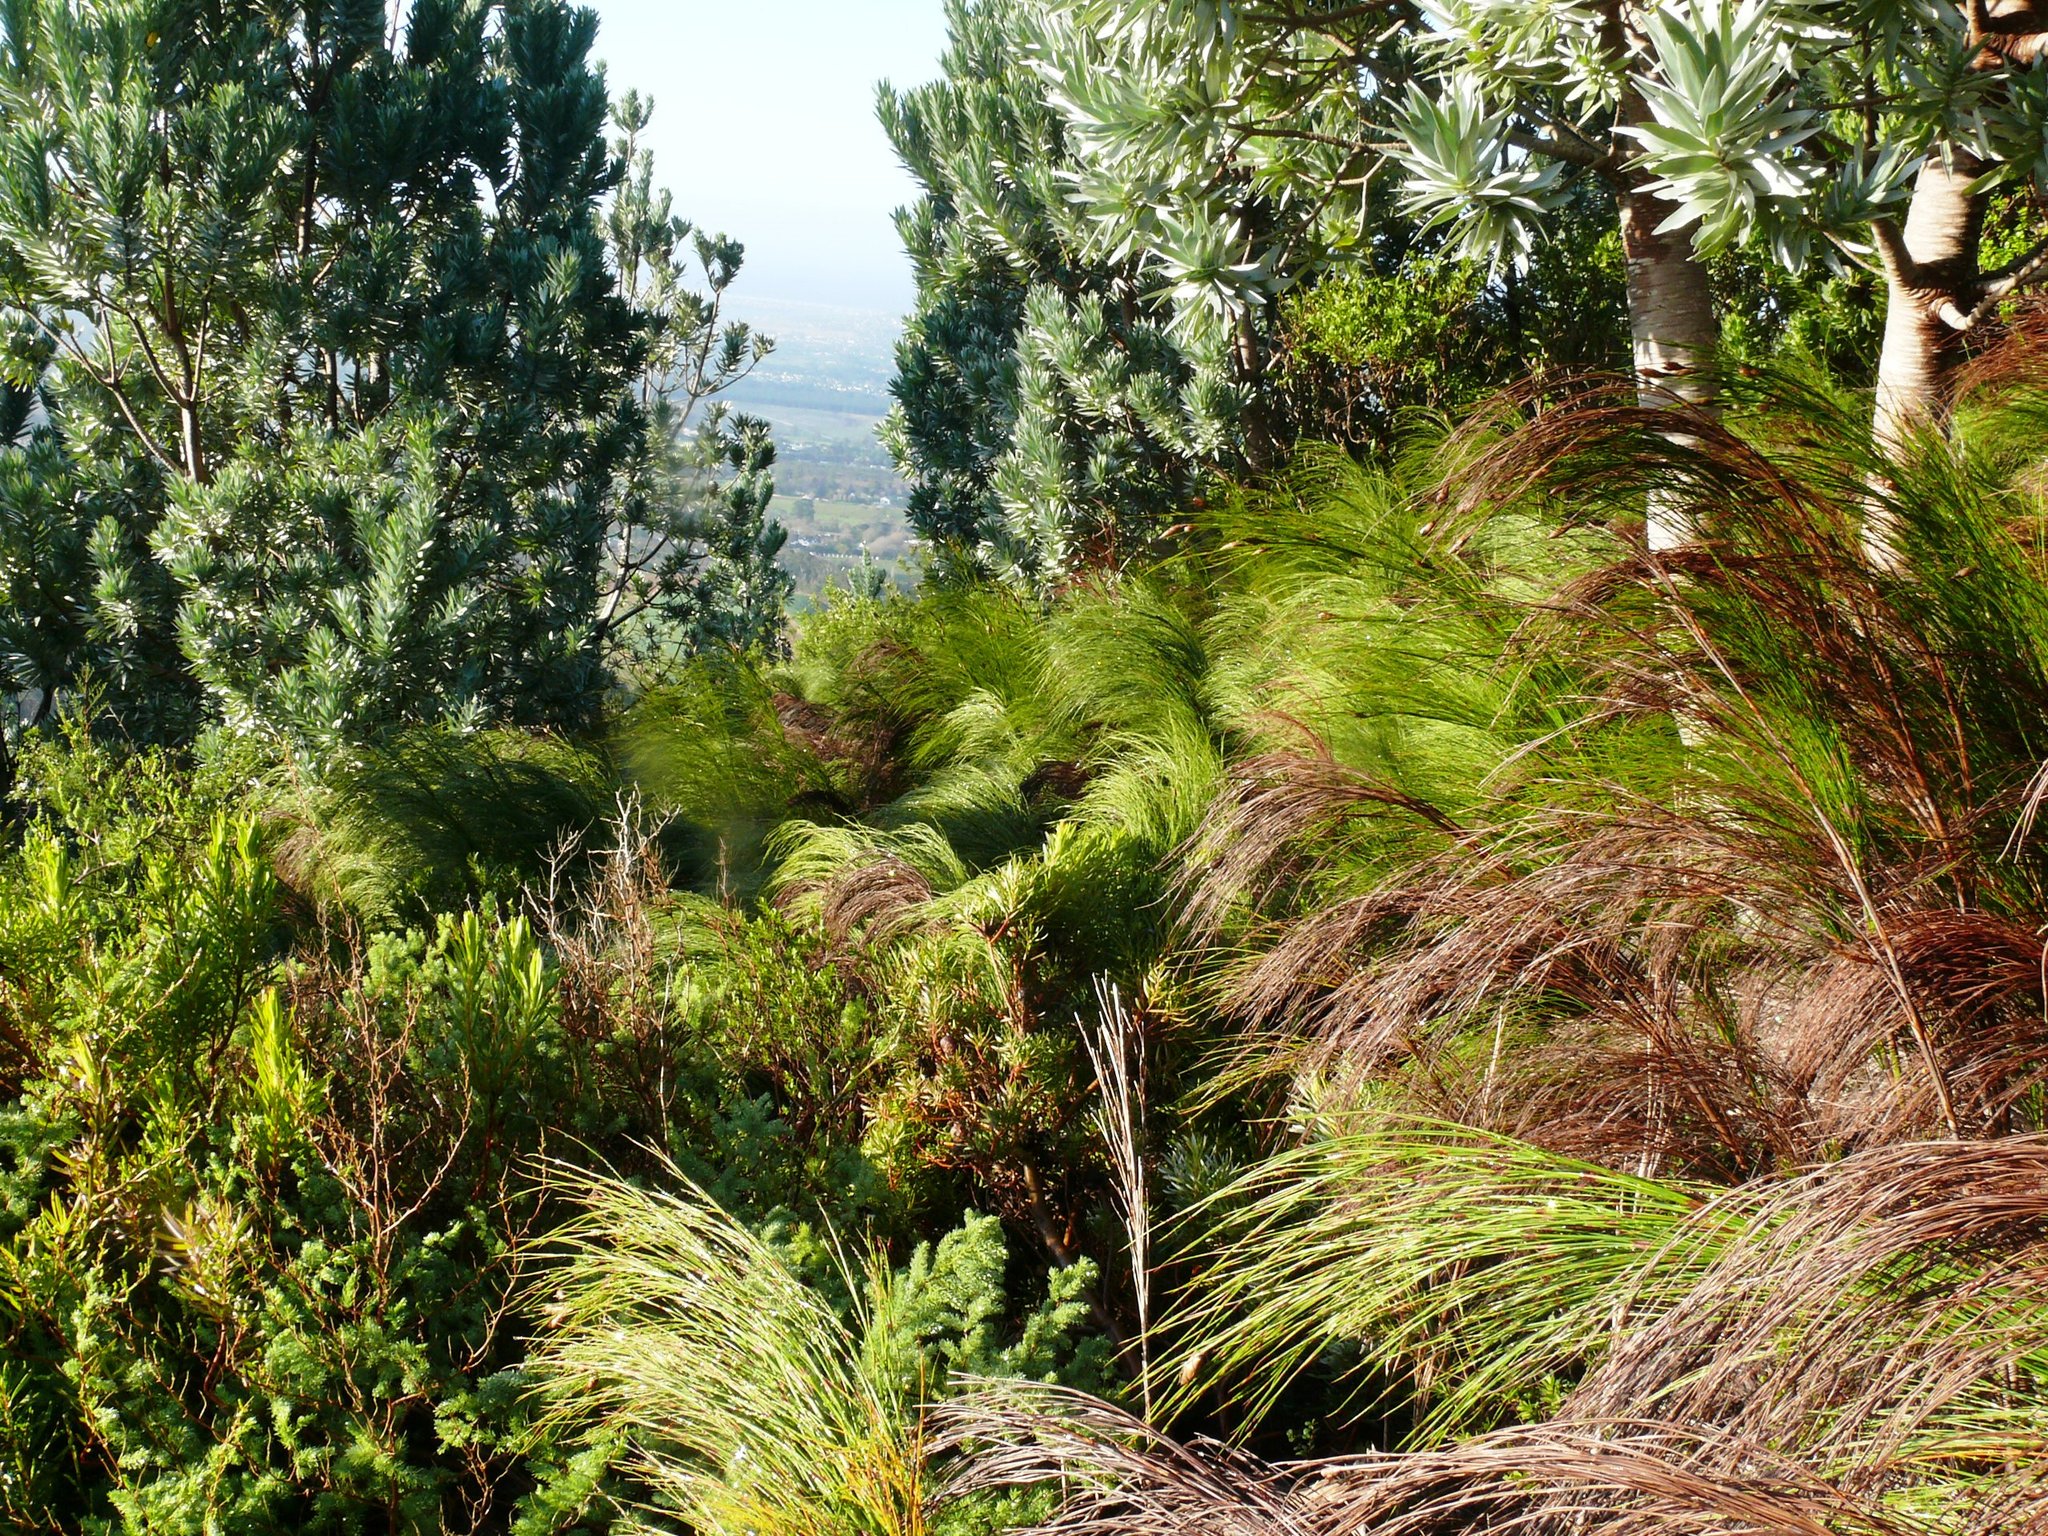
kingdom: Plantae
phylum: Tracheophyta
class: Liliopsida
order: Poales
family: Restionaceae
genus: Cannomois
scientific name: Cannomois virgata
